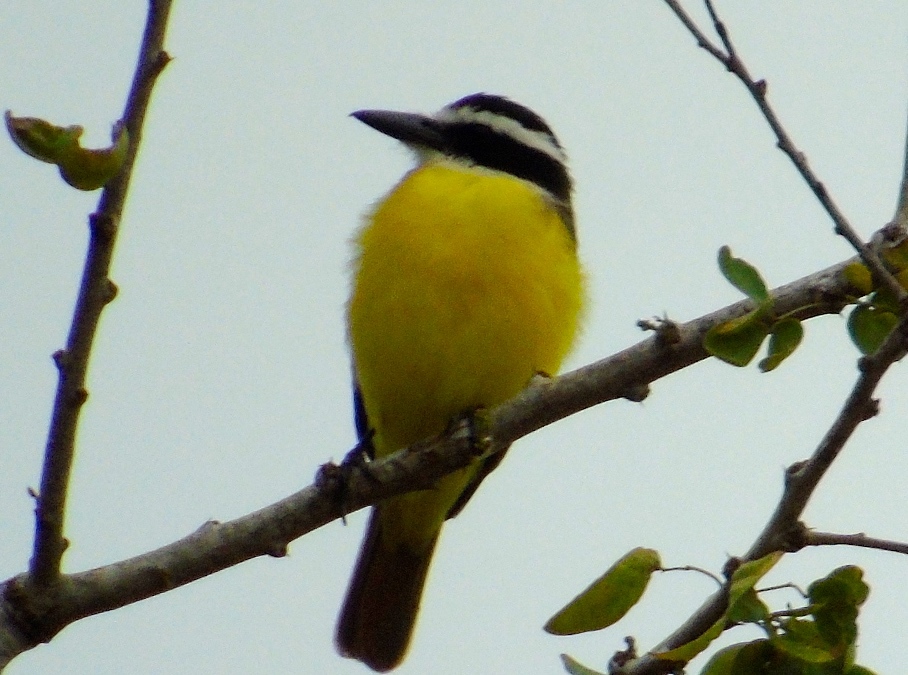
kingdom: Animalia
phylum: Chordata
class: Aves
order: Passeriformes
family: Tyrannidae
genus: Pitangus
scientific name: Pitangus sulphuratus
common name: Great kiskadee
